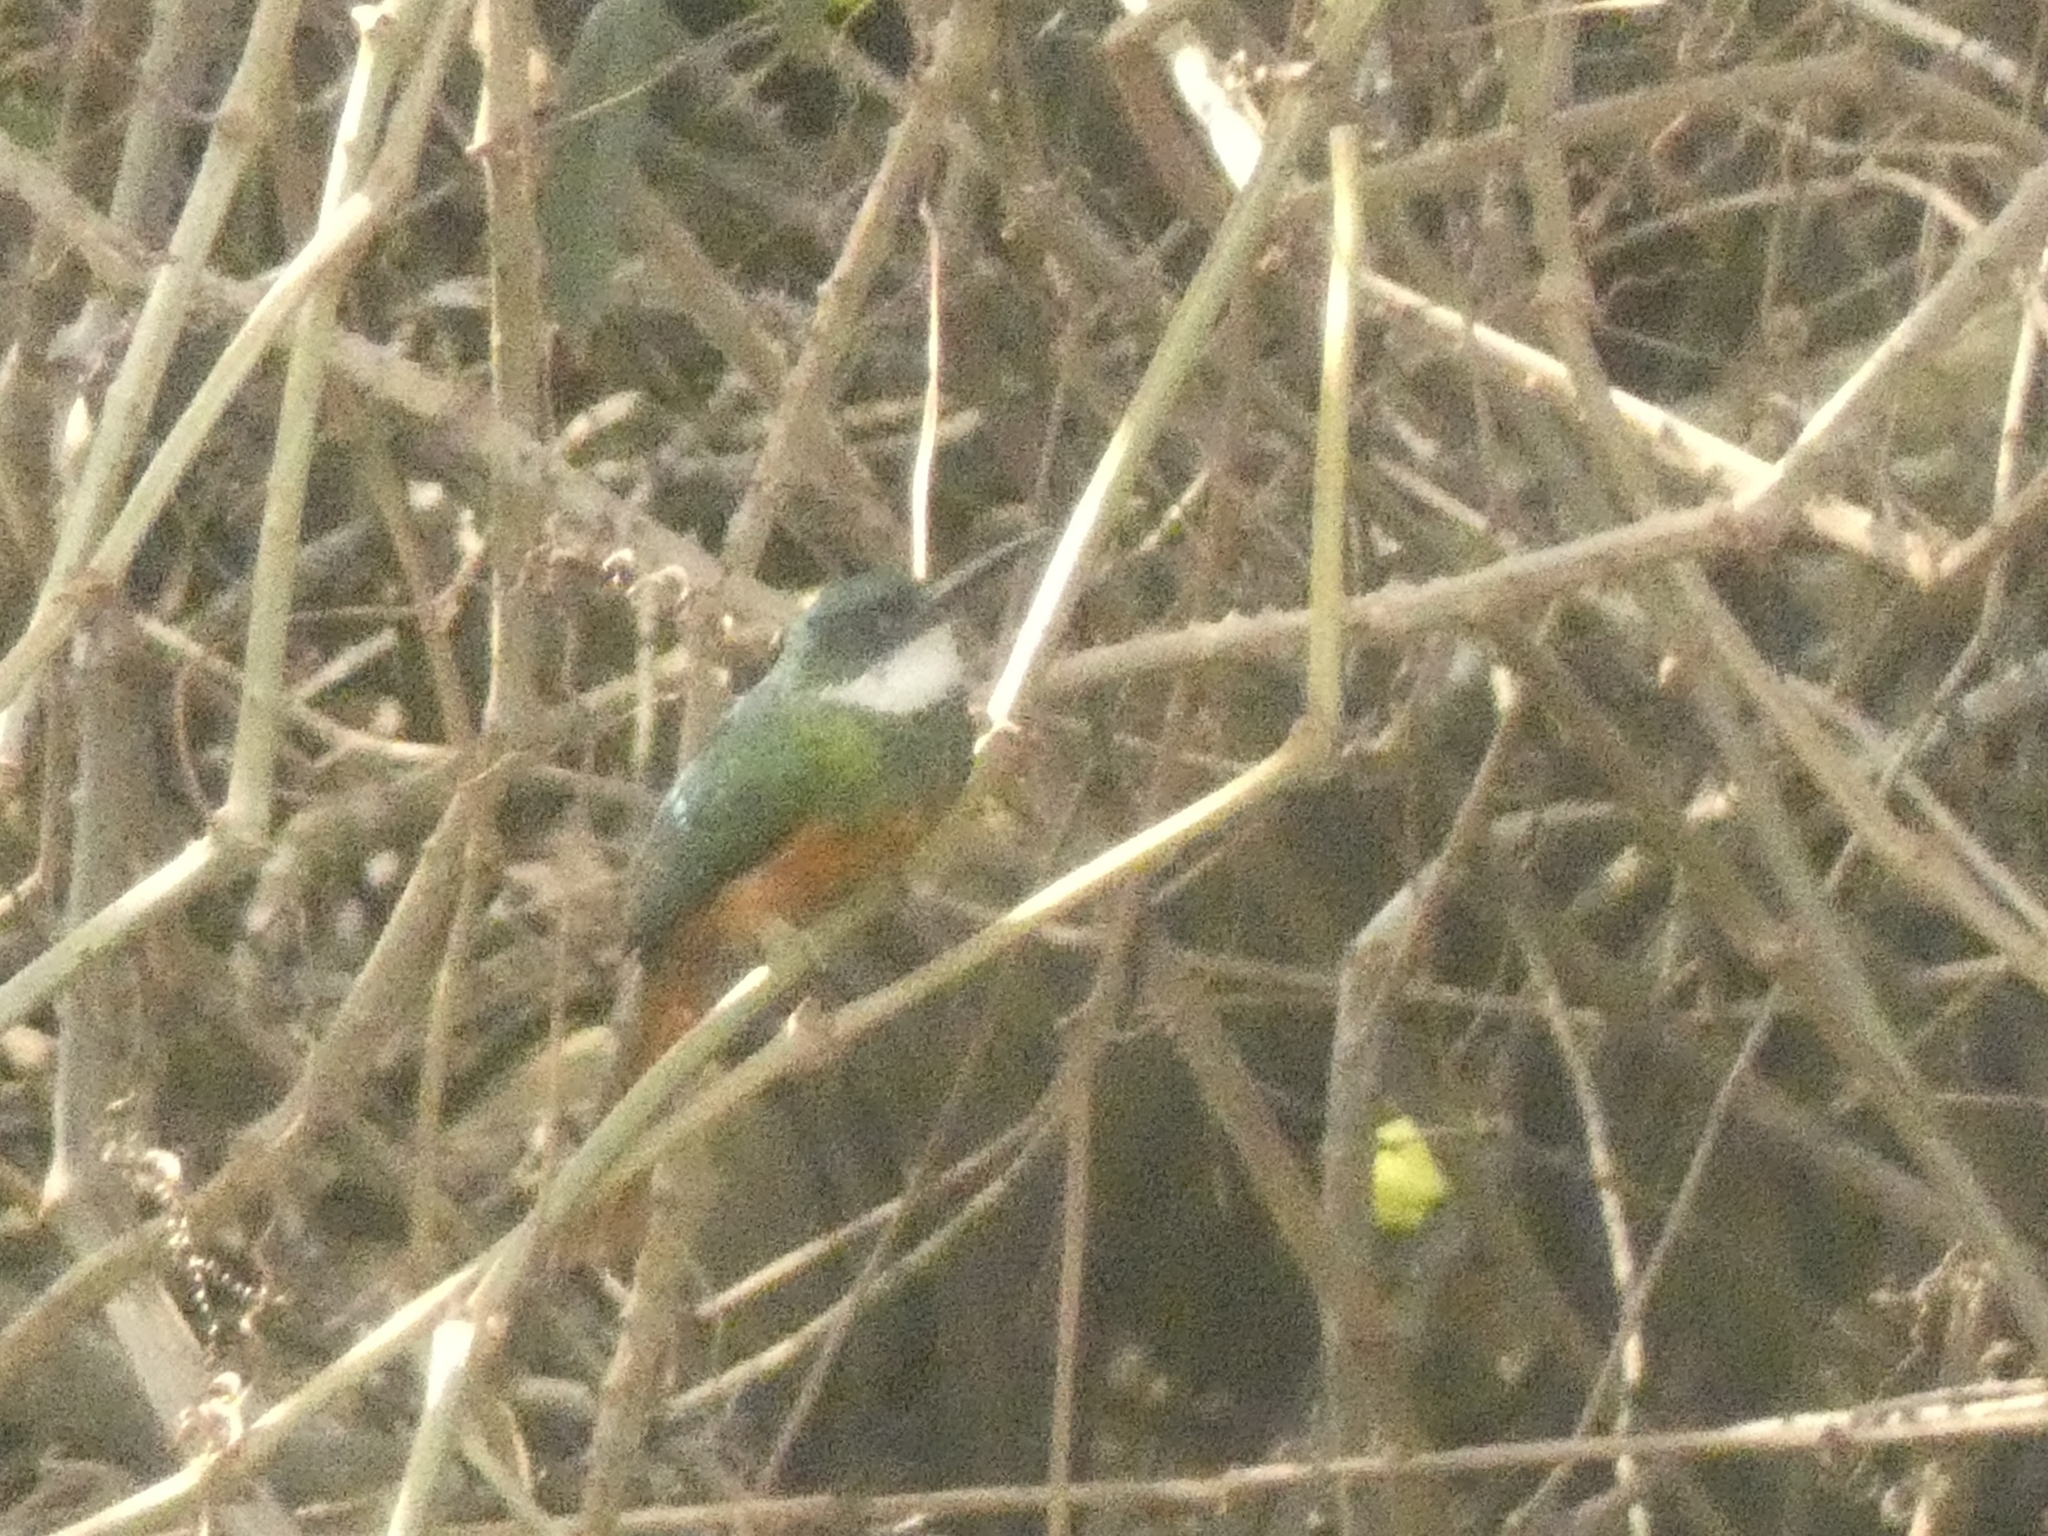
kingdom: Animalia
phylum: Chordata
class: Aves
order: Piciformes
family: Galbulidae
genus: Galbula
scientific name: Galbula ruficauda
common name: Rufous-tailed jacamar
